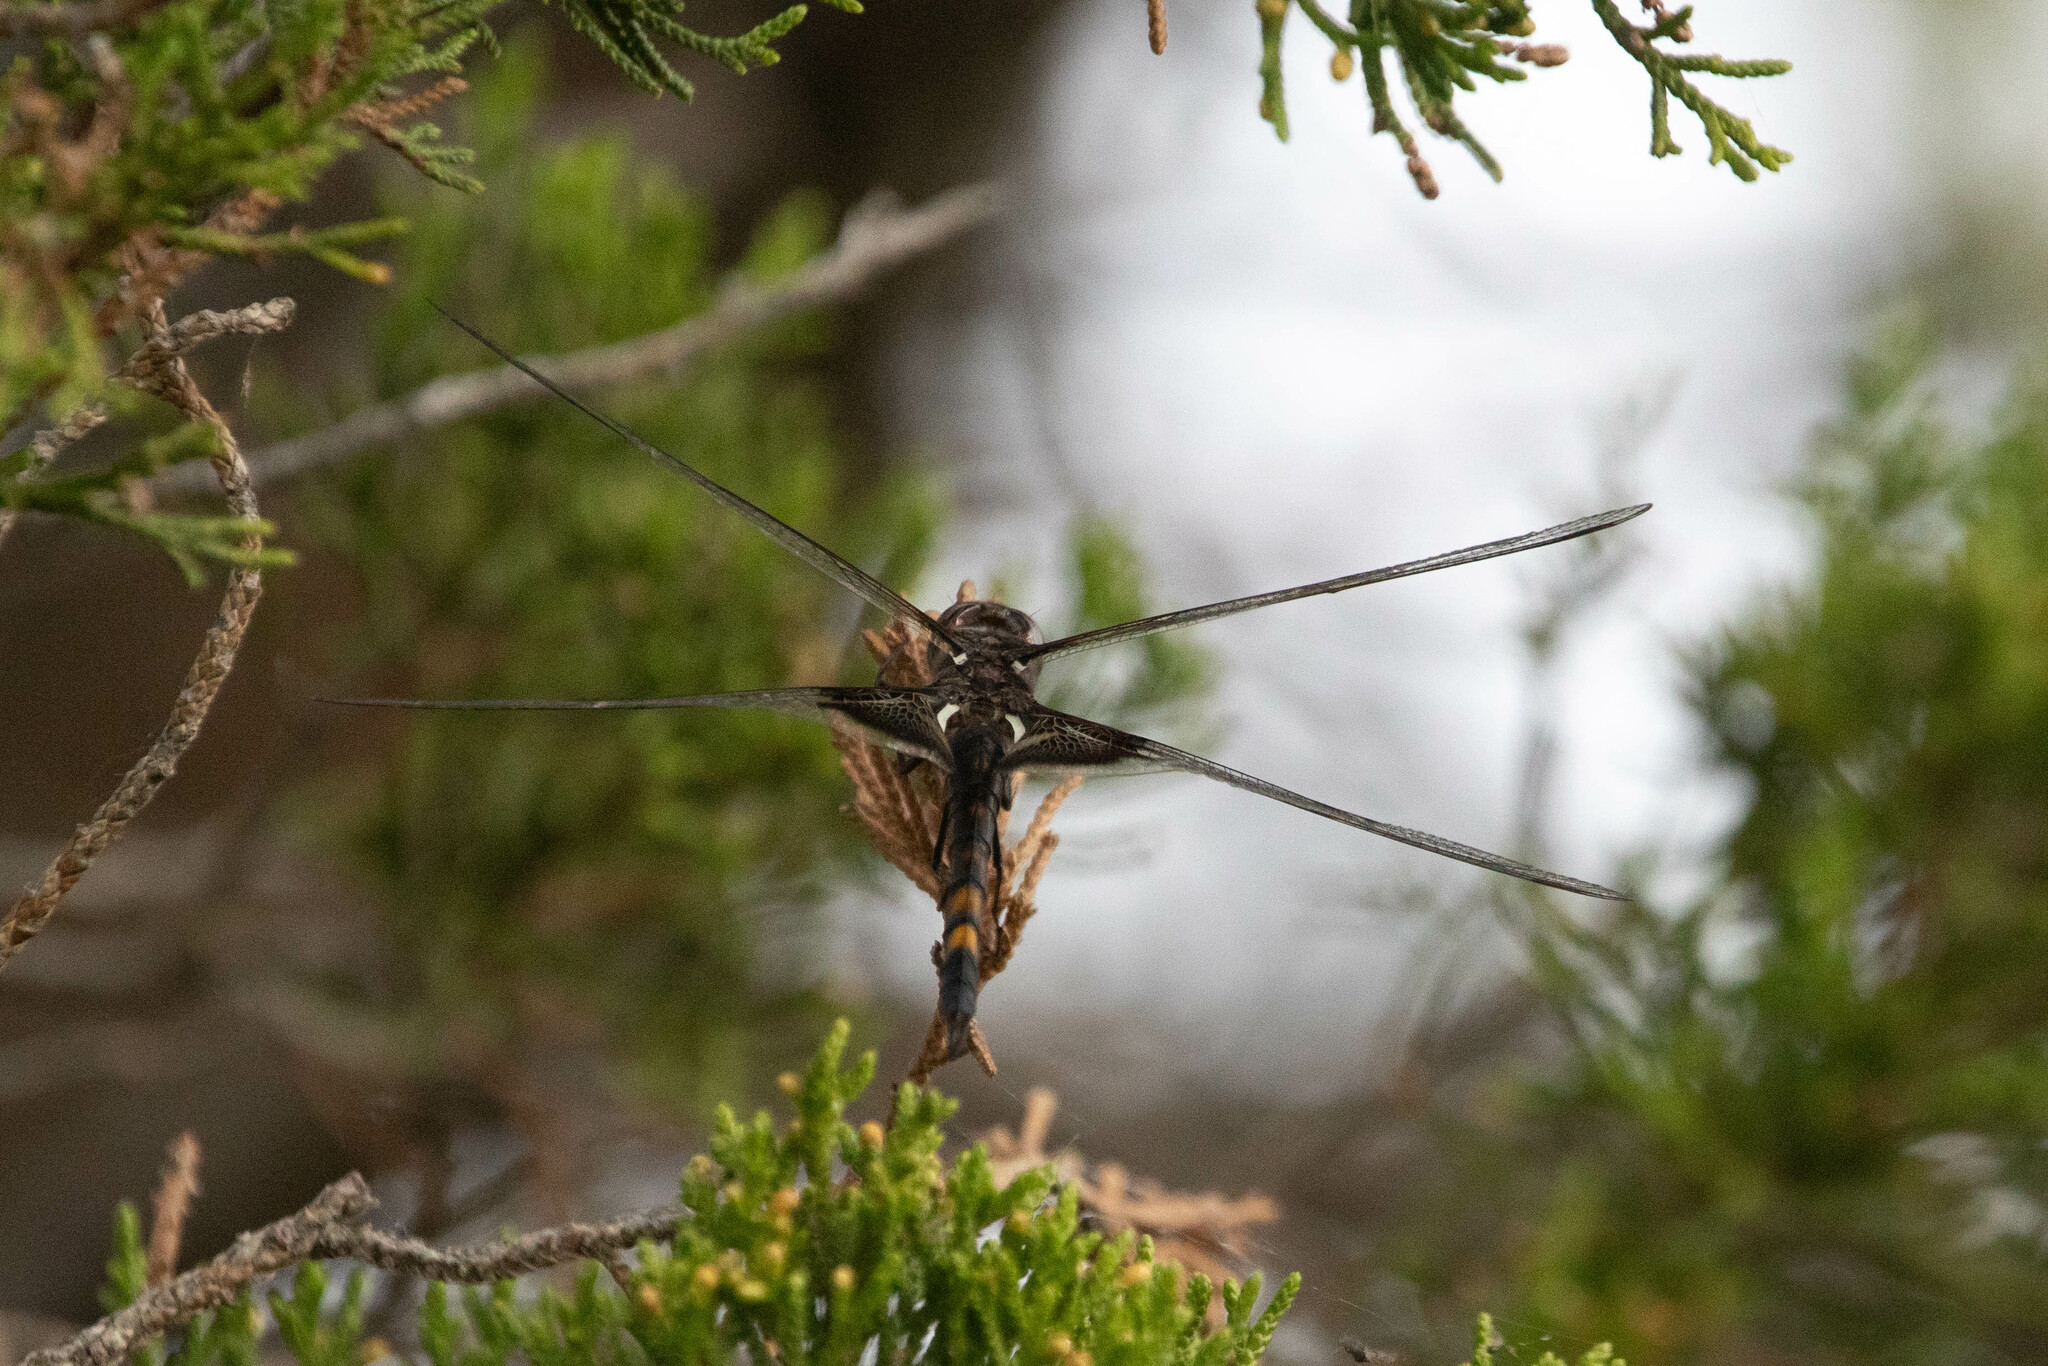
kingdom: Animalia
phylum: Arthropoda
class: Insecta
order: Odonata
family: Libellulidae
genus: Tramea
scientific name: Tramea lacerata
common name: Black saddlebags
